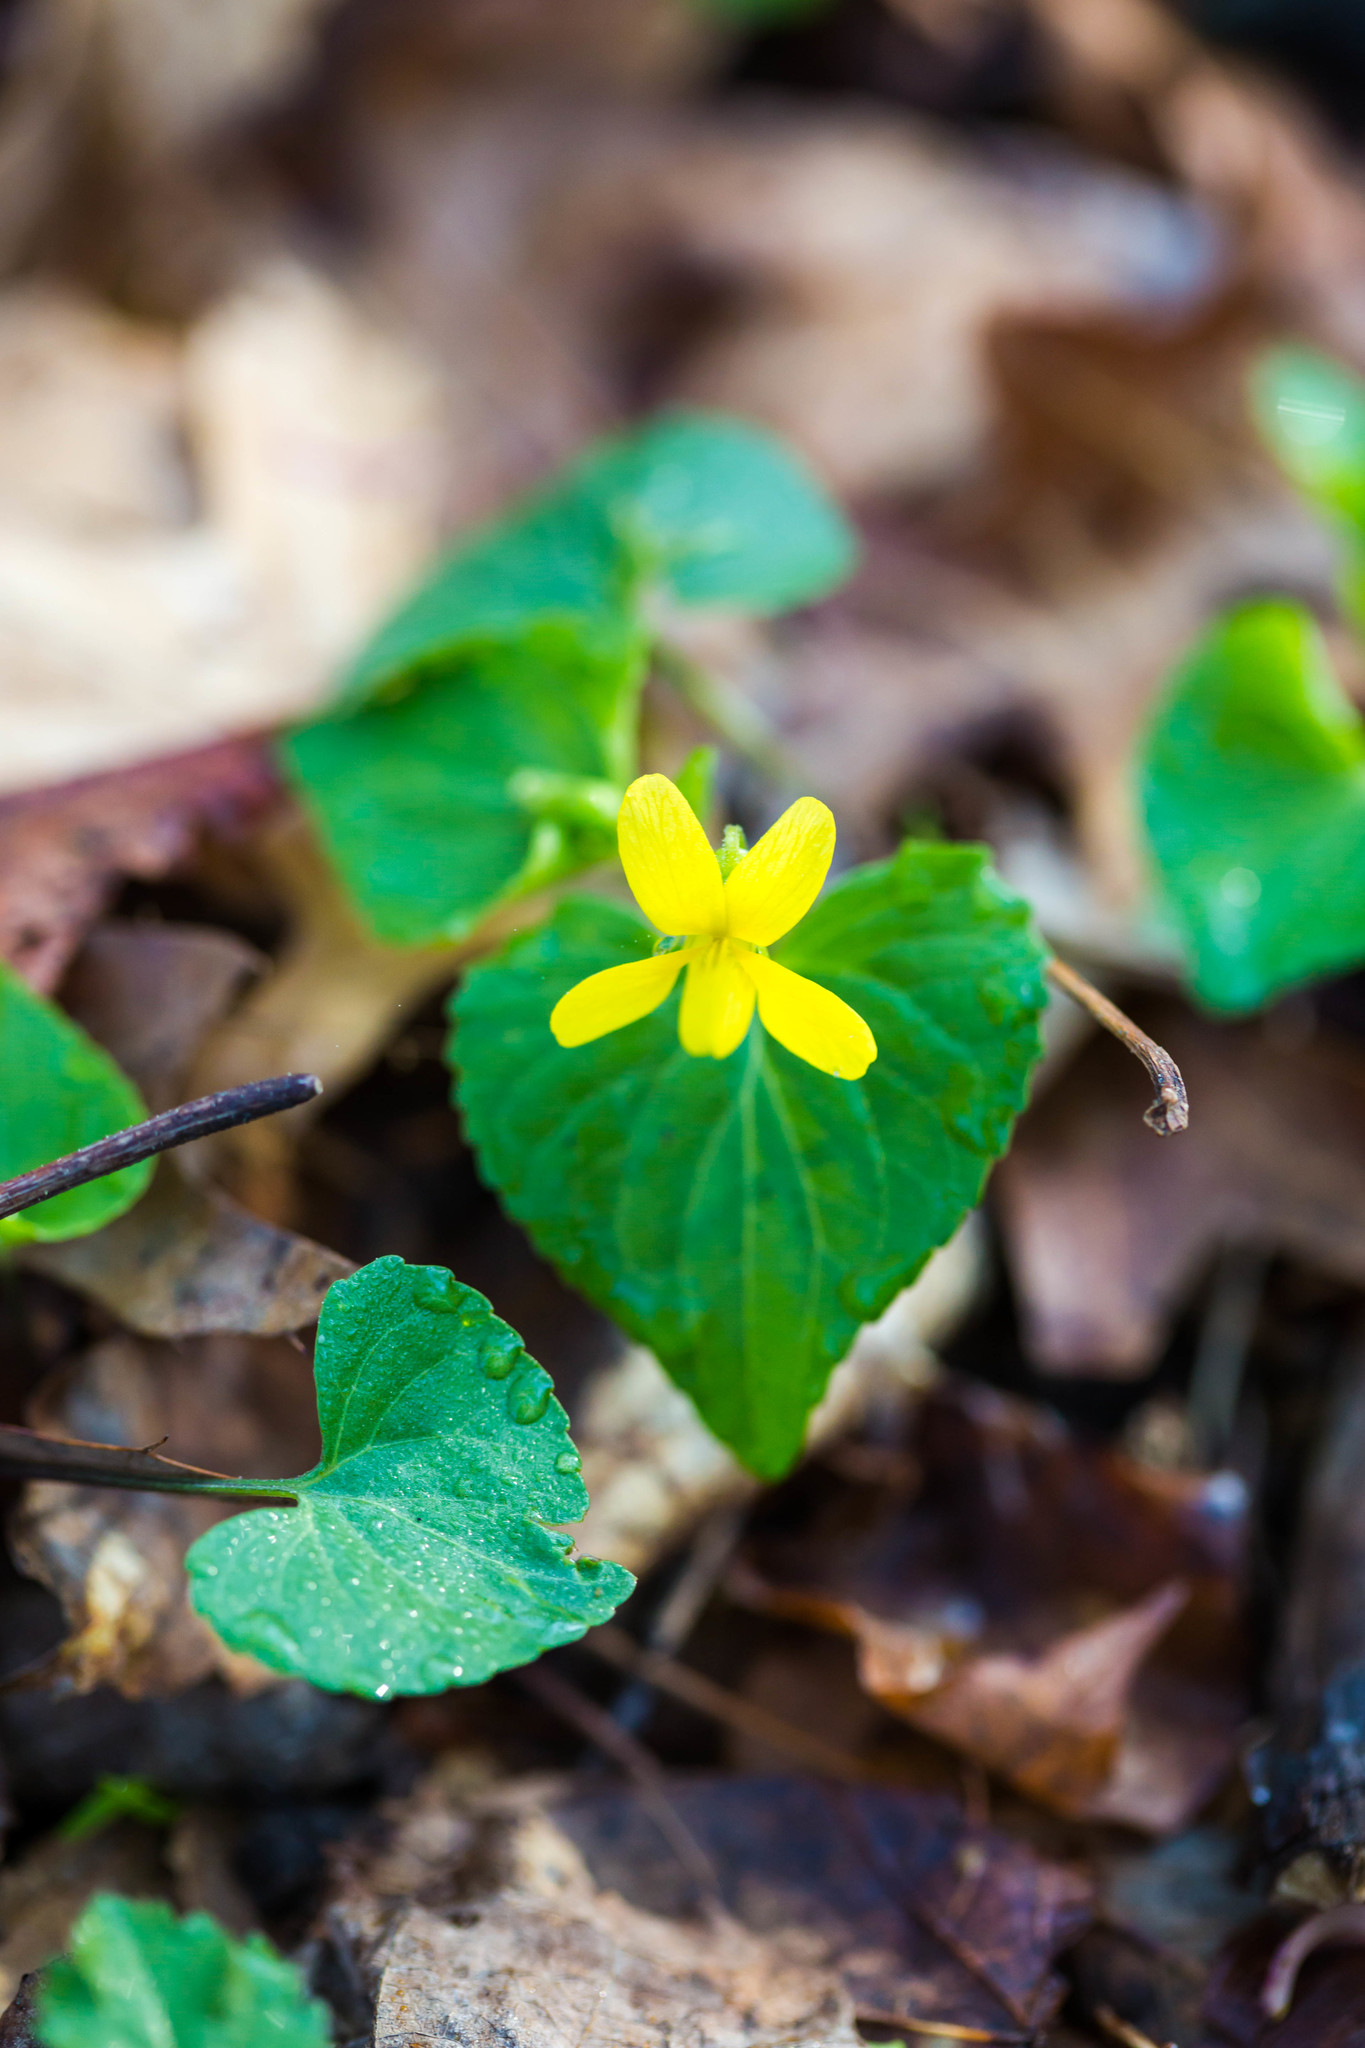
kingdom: Plantae
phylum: Tracheophyta
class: Magnoliopsida
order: Malpighiales
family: Violaceae
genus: Viola
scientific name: Viola eriocarpa
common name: Smooth yellow violet
